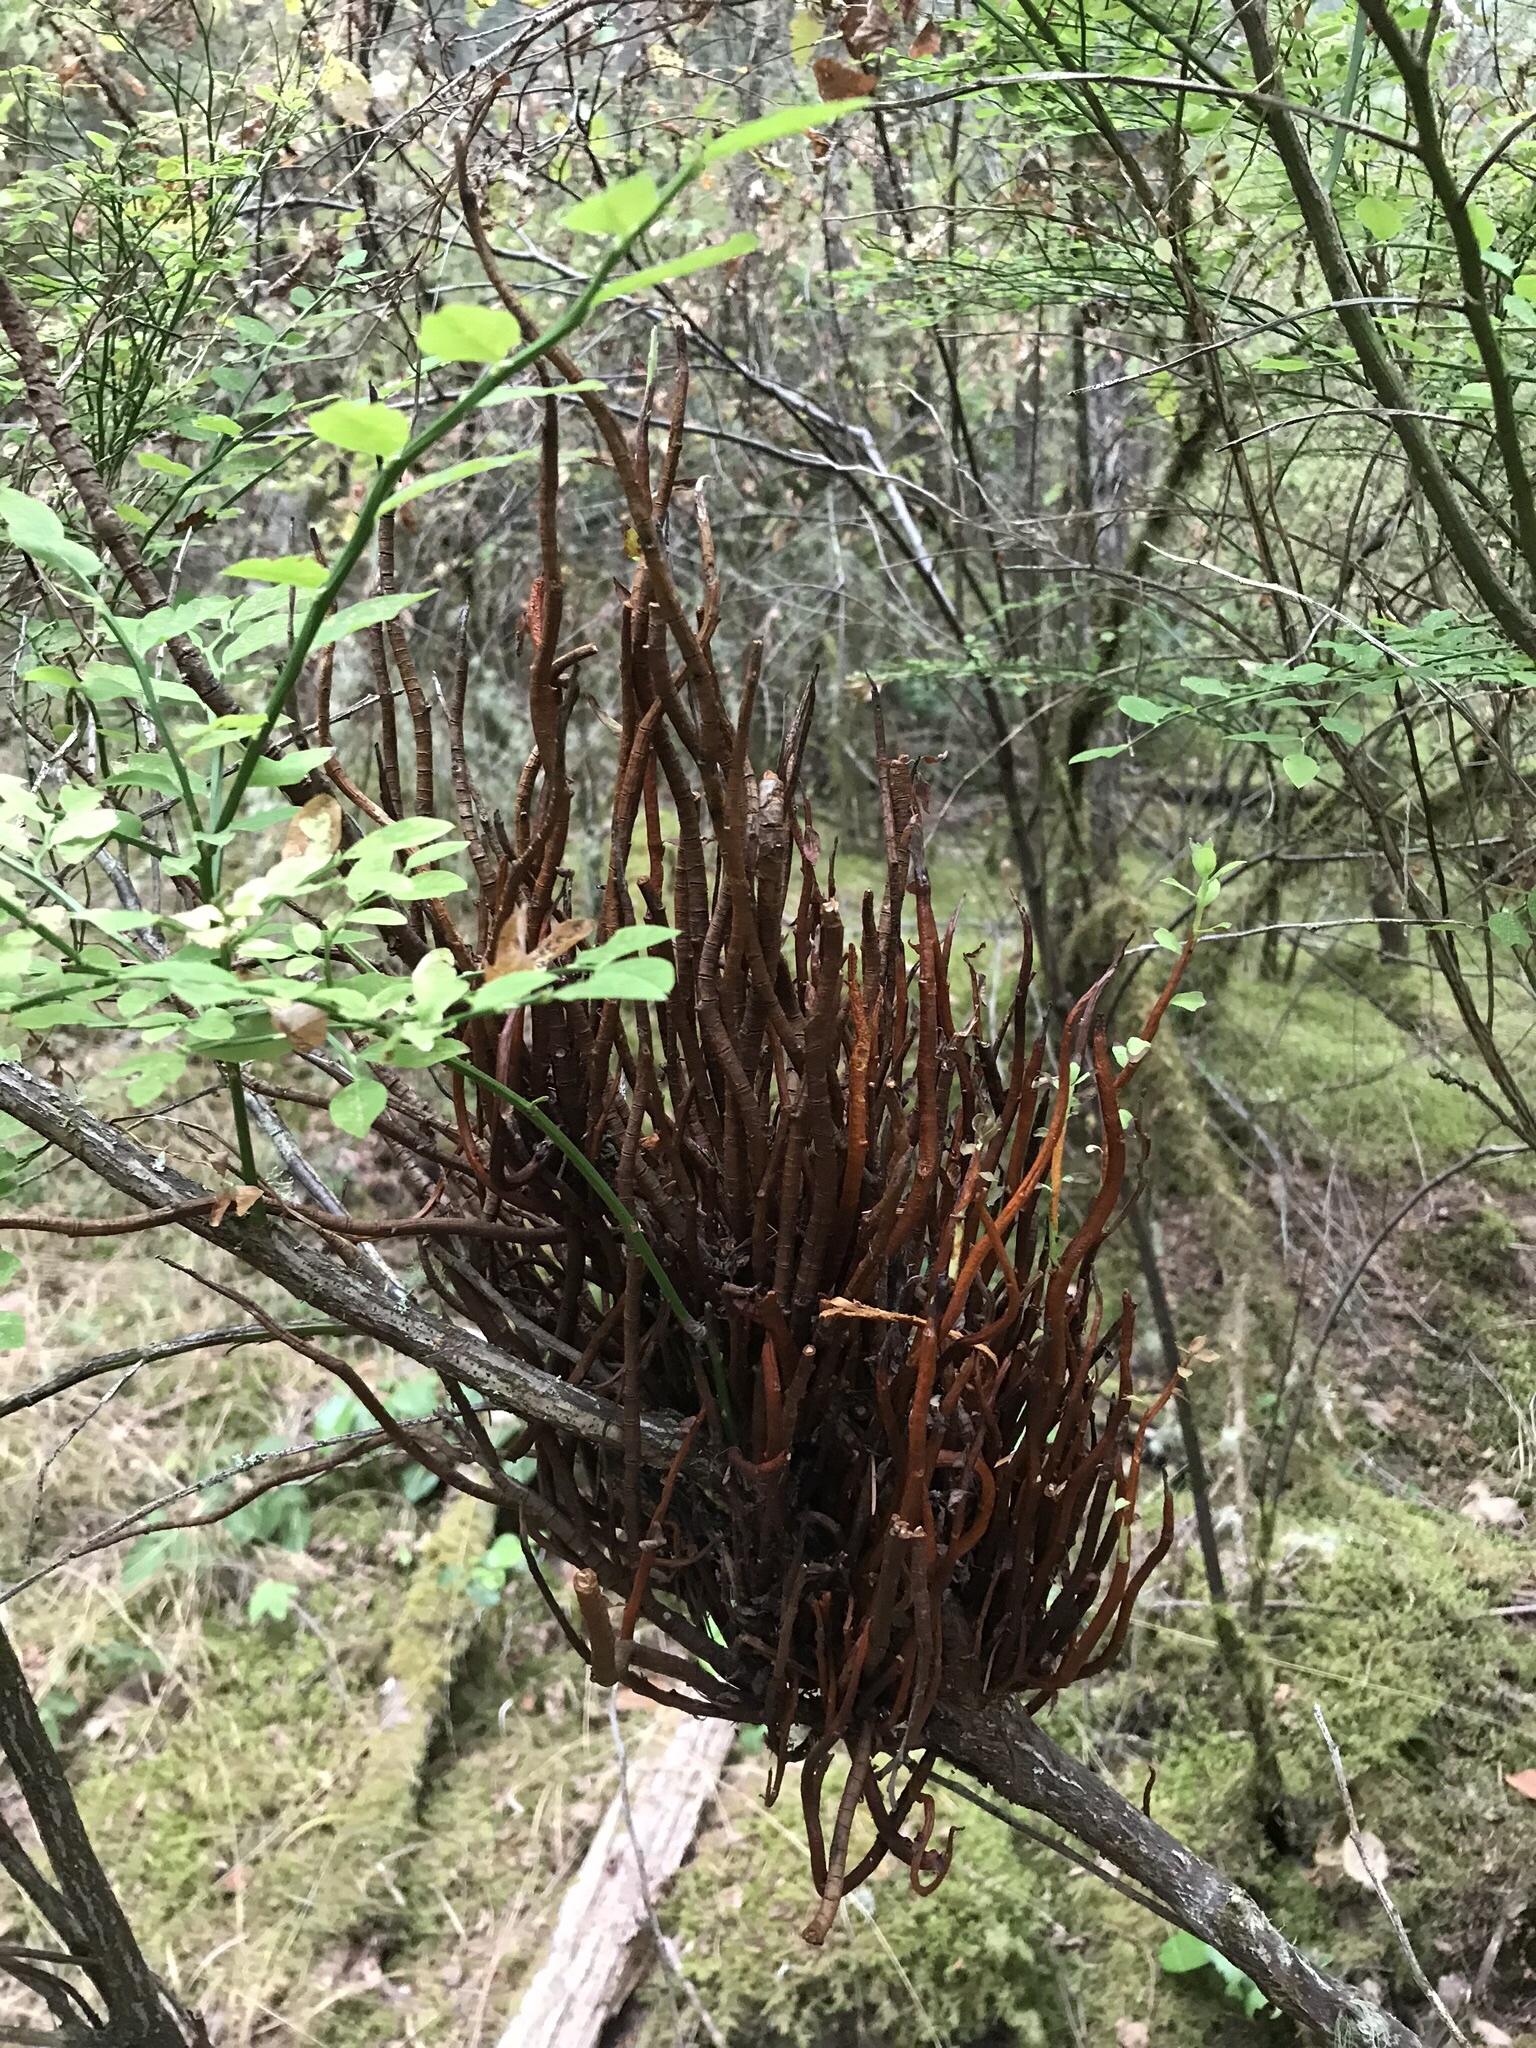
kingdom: Fungi
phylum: Basidiomycota
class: Pucciniomycetes
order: Pucciniales
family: Pucciniastraceae
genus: Calyptospora
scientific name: Calyptospora
